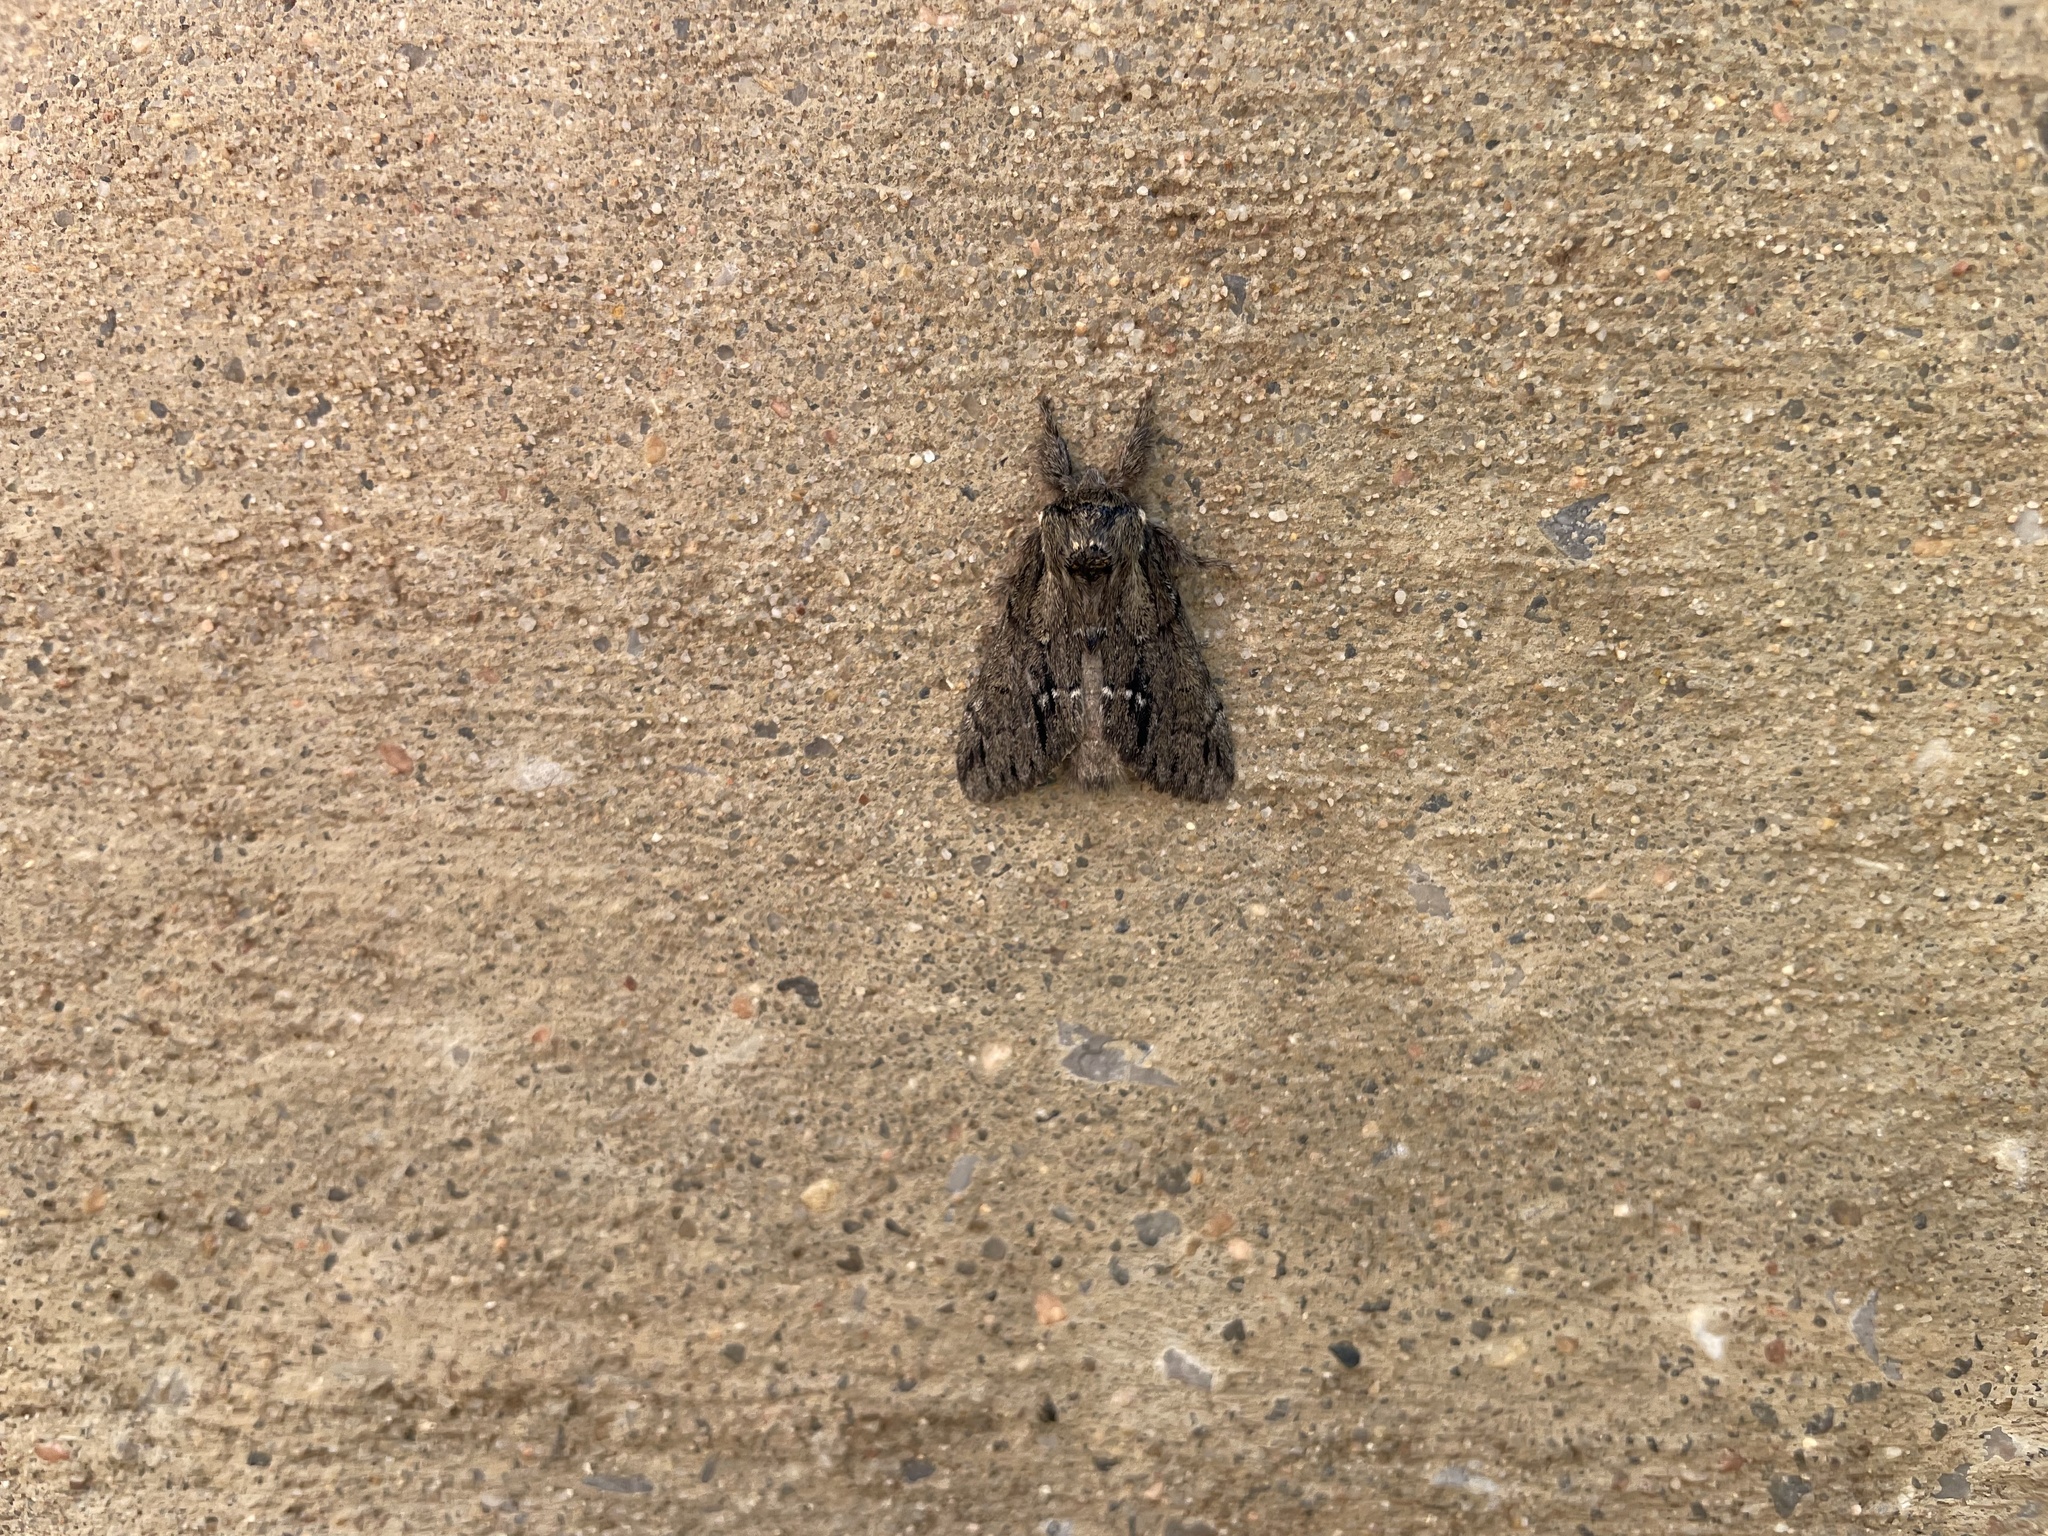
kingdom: Animalia
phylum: Arthropoda
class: Insecta
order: Lepidoptera
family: Notodontidae
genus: Paraeschra
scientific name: Paraeschra georgica
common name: Georgian prominent
